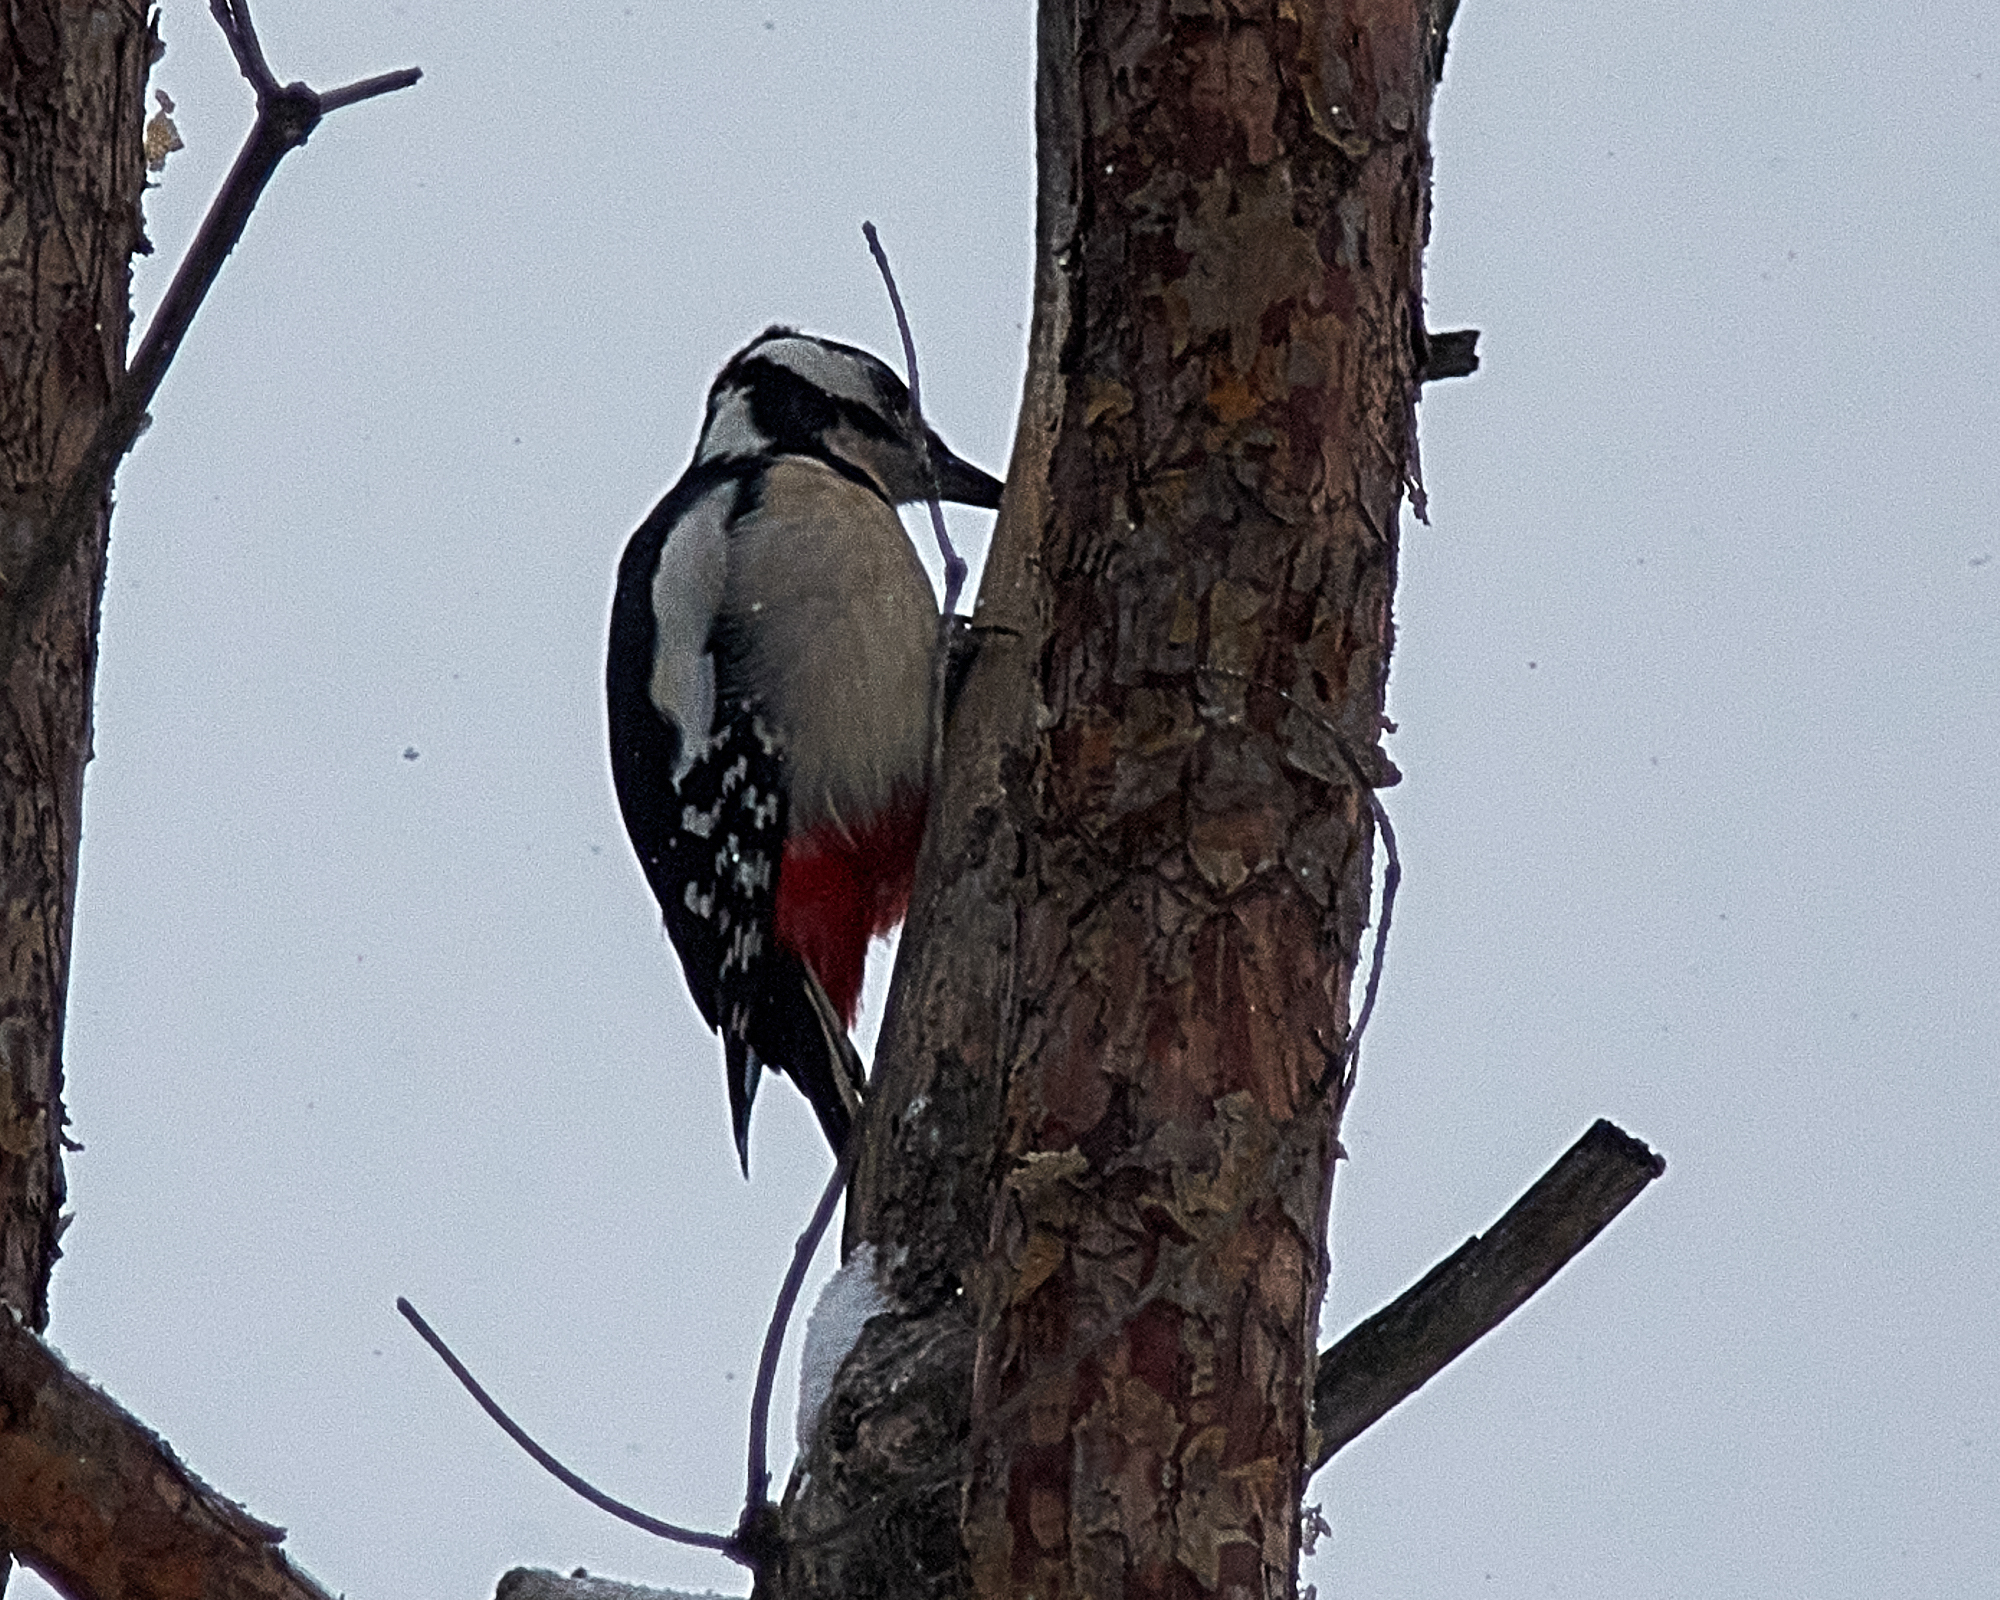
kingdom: Animalia
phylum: Chordata
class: Aves
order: Piciformes
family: Picidae
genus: Dendrocopos
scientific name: Dendrocopos major
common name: Great spotted woodpecker
